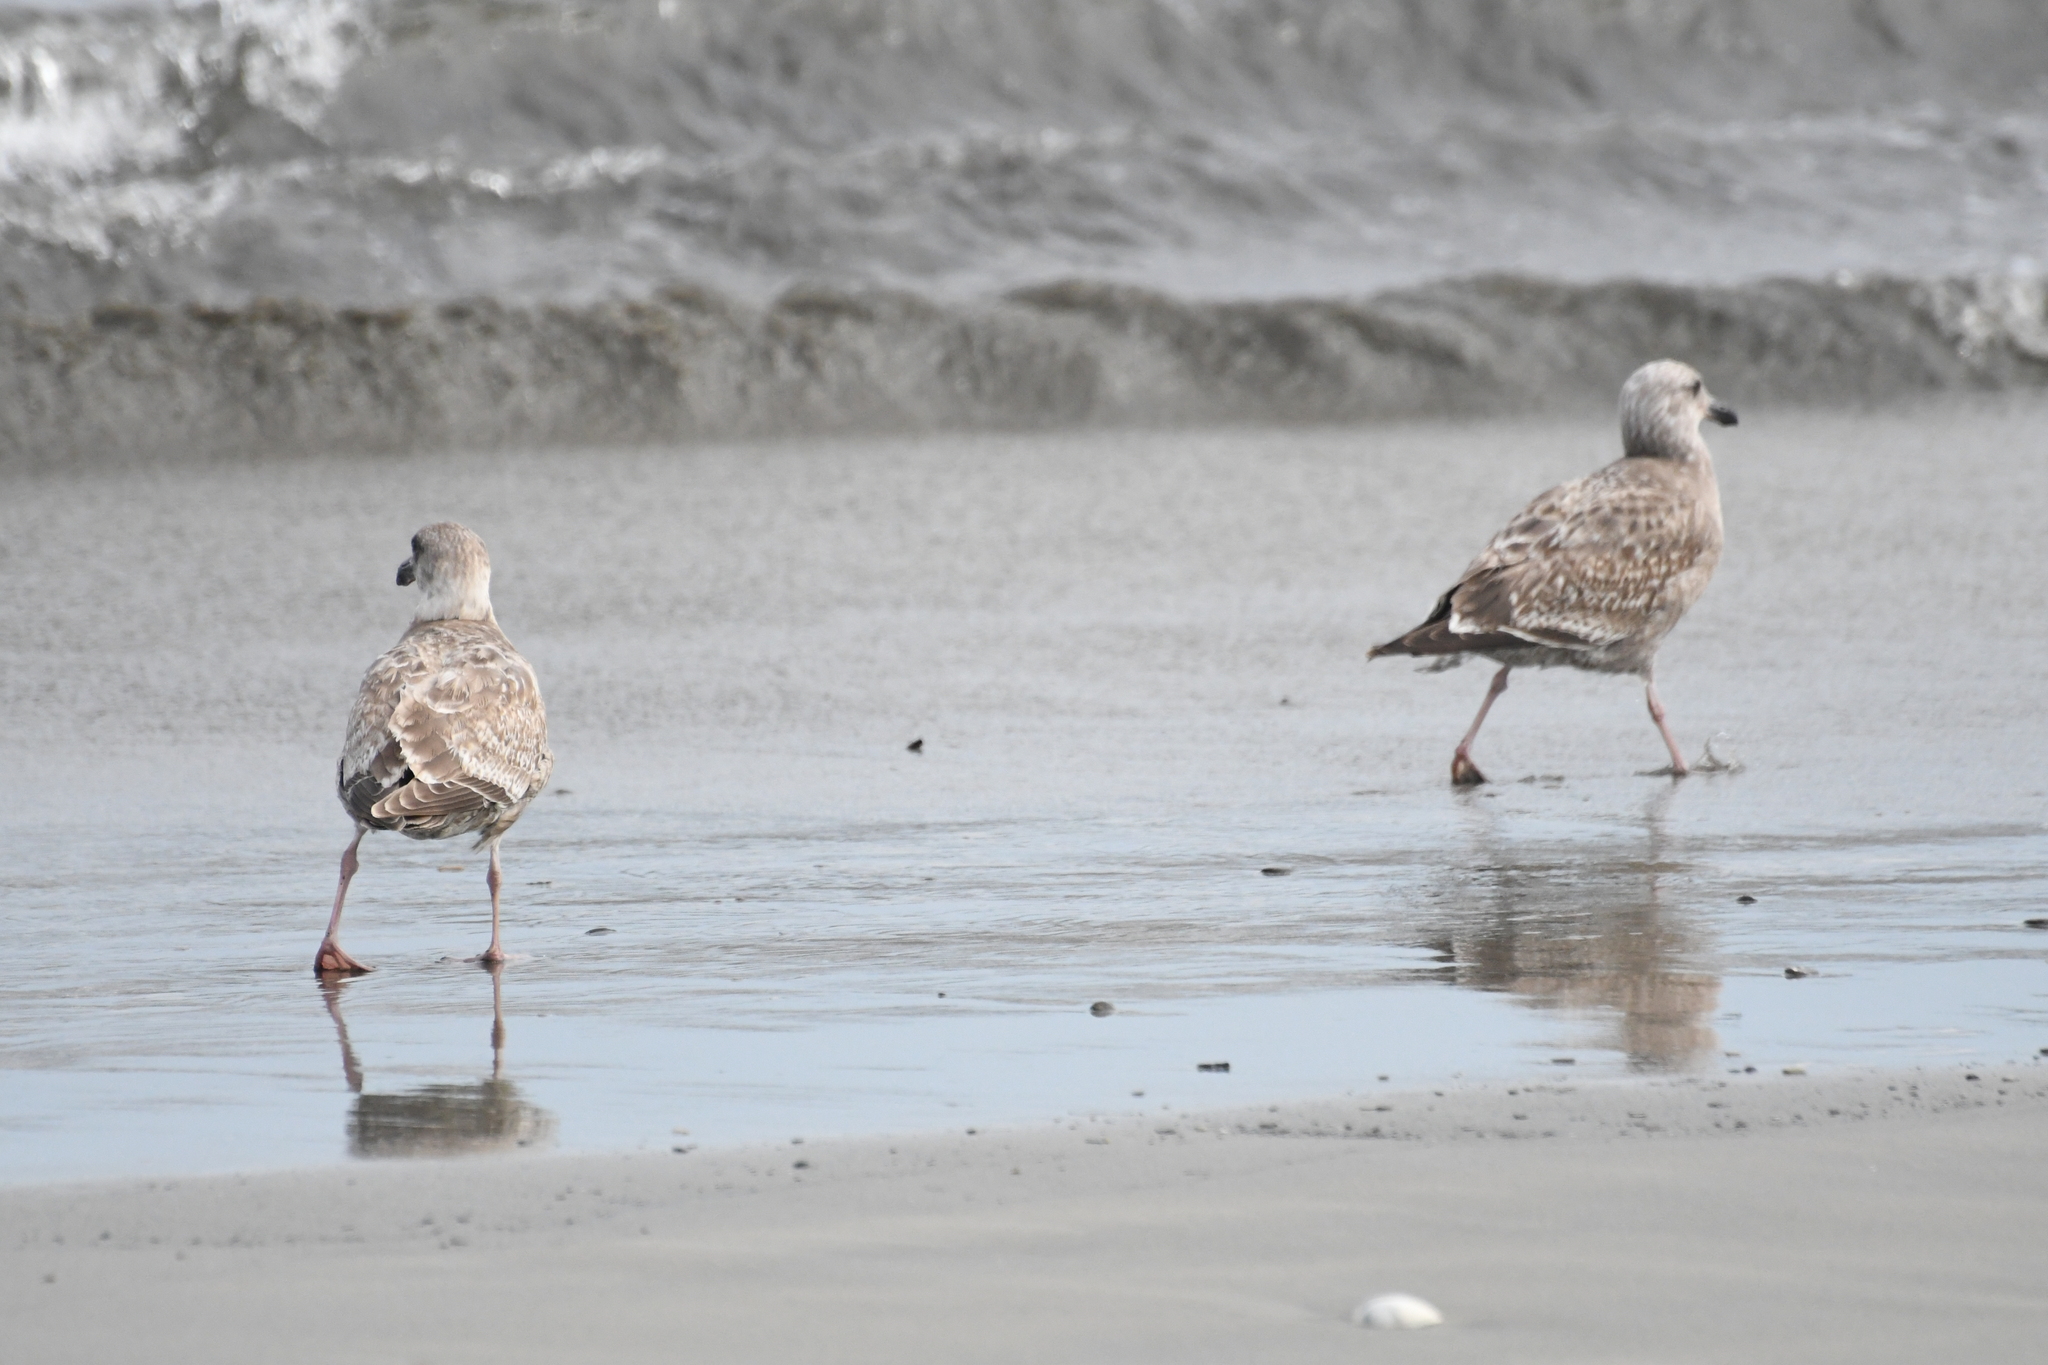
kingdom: Animalia
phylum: Chordata
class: Aves
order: Charadriiformes
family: Laridae
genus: Larus
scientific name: Larus occidentalis
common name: Western gull
